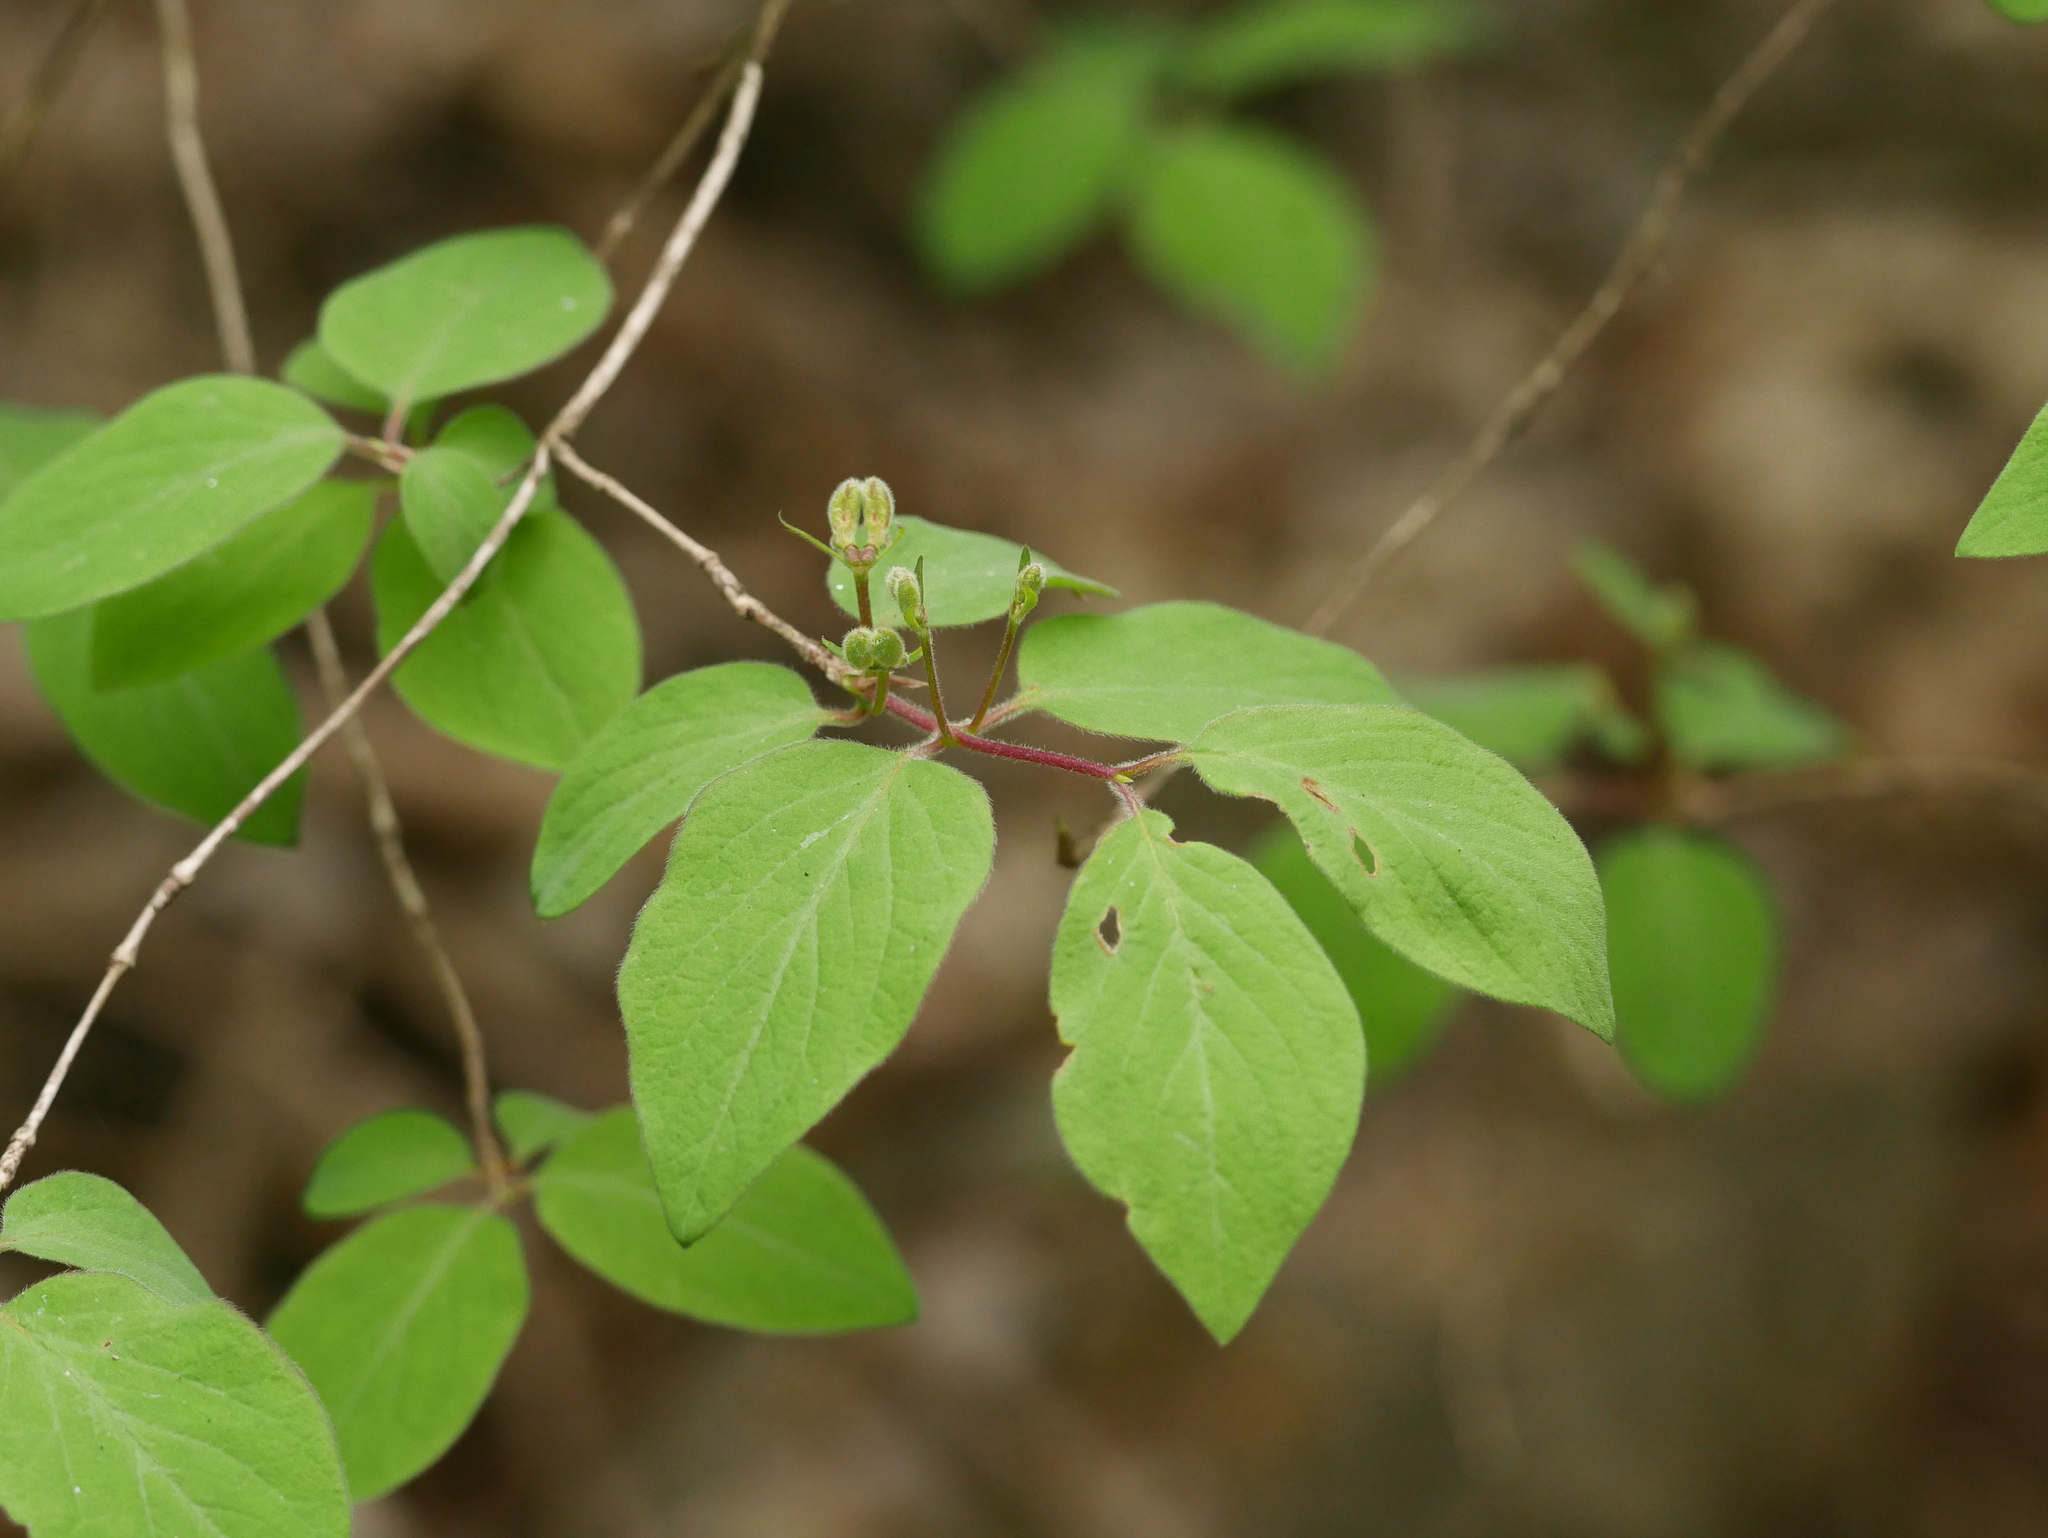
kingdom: Plantae
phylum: Tracheophyta
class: Magnoliopsida
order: Dipsacales
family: Caprifoliaceae
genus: Lonicera
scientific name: Lonicera xylosteum
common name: Fly honeysuckle
